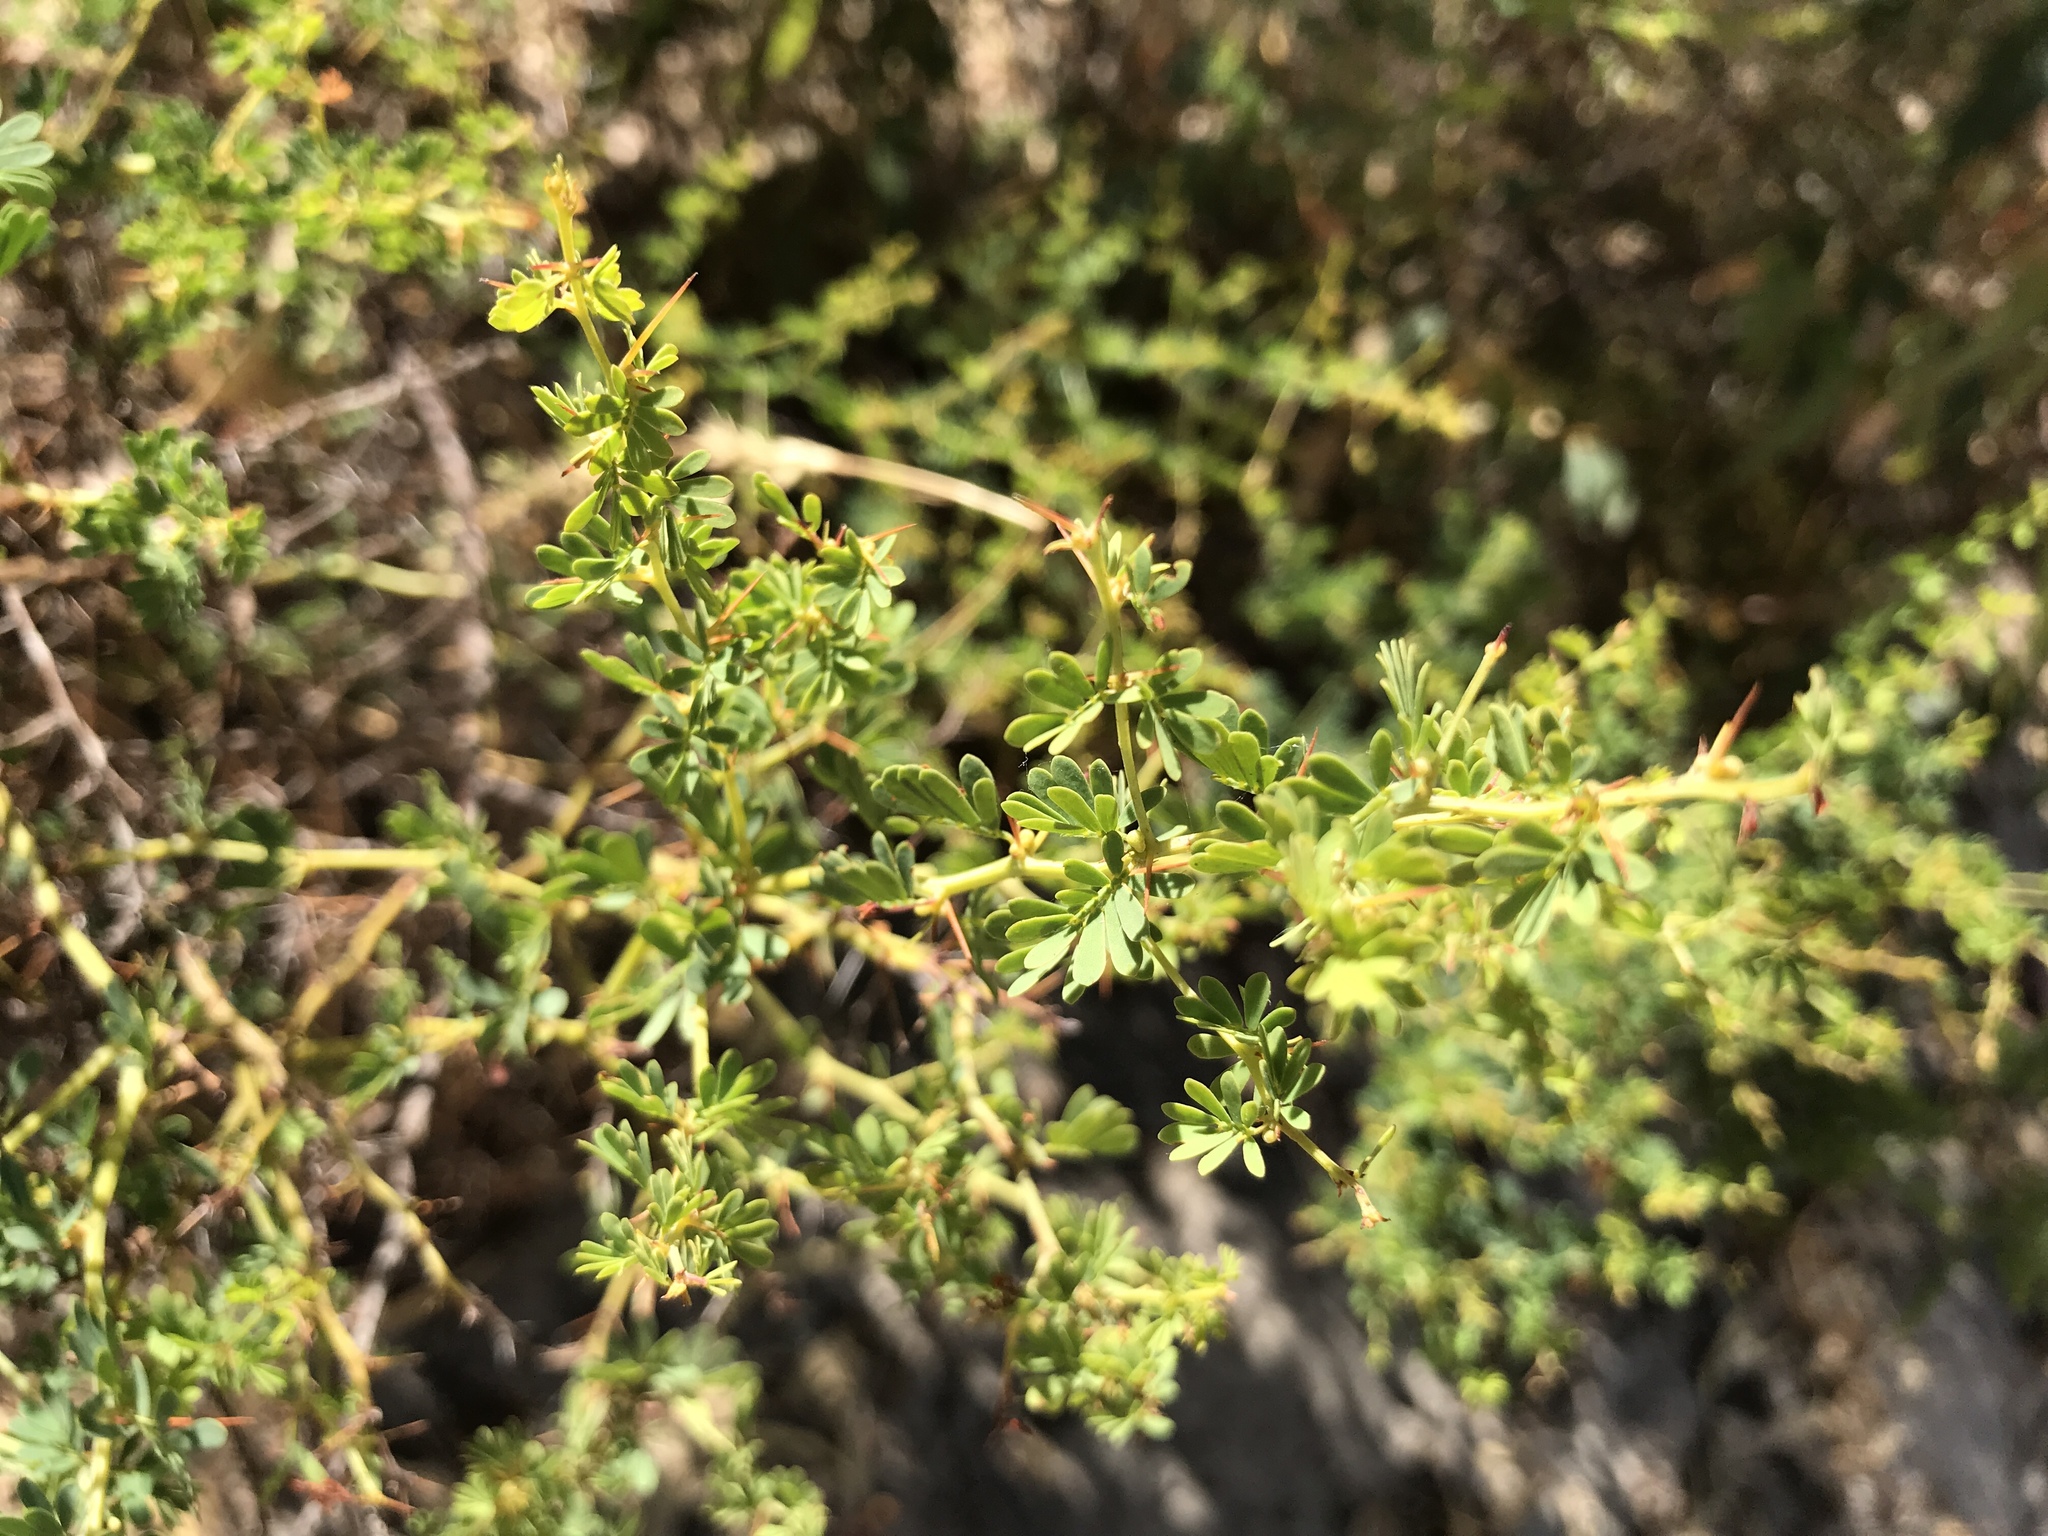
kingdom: Plantae
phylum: Tracheophyta
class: Magnoliopsida
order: Fabales
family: Fabaceae
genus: Acacia
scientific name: Acacia pulchella
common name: Prickly moses
